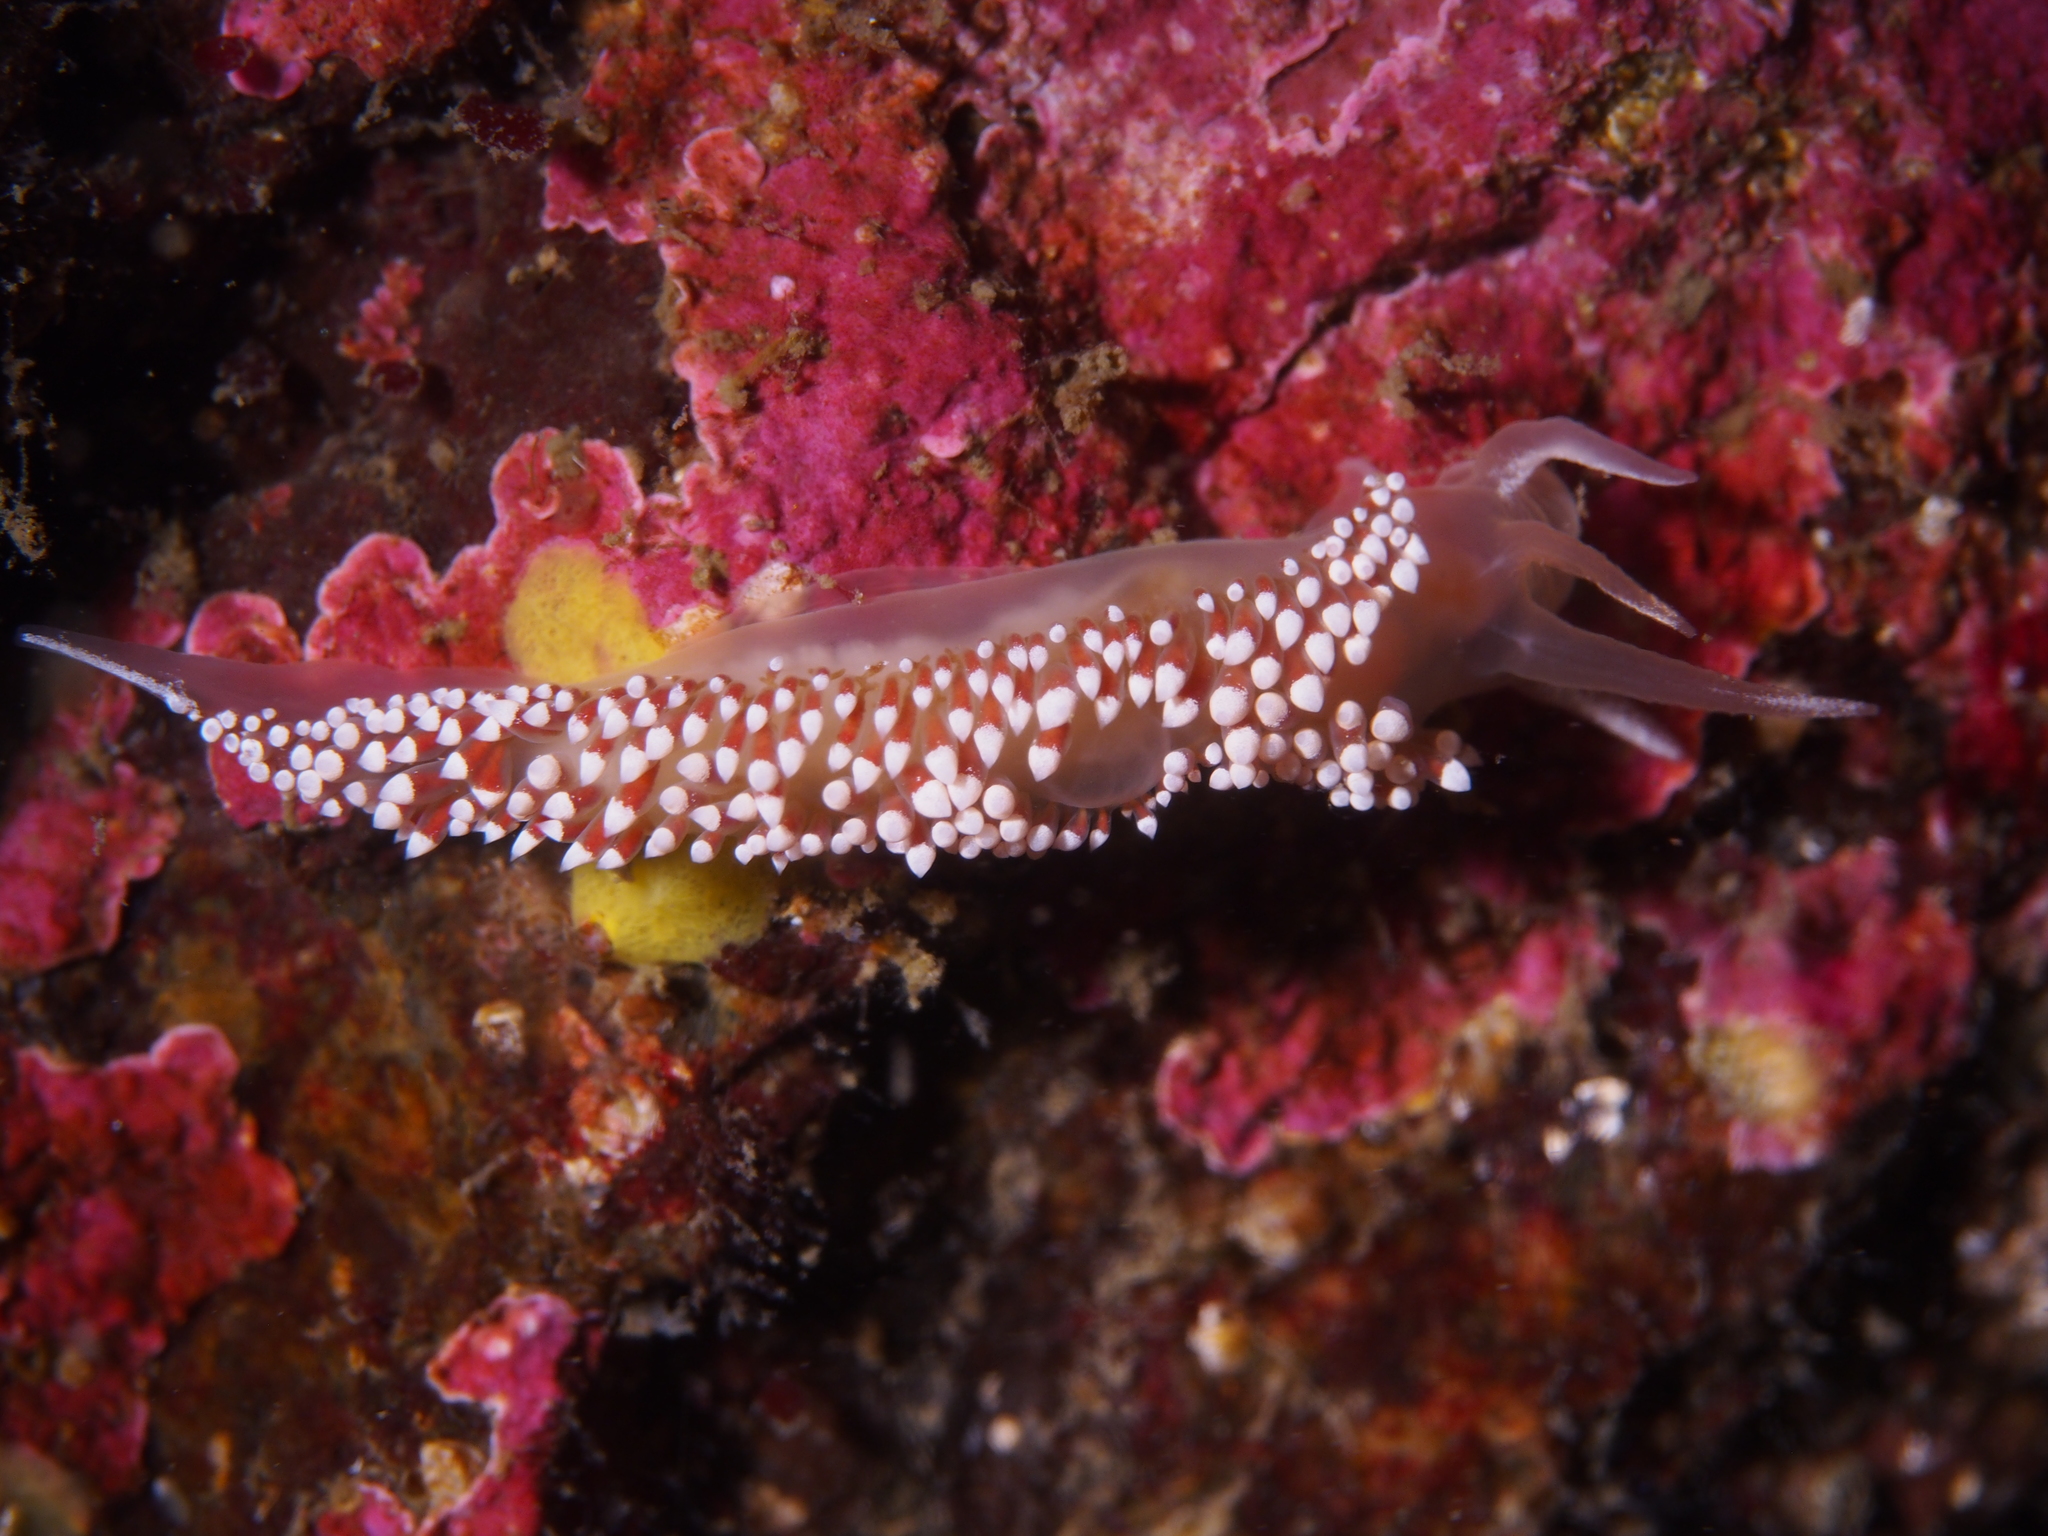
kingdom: Animalia
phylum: Mollusca
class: Gastropoda
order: Nudibranchia
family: Coryphellidae
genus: Coryphella
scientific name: Coryphella verrucosa
